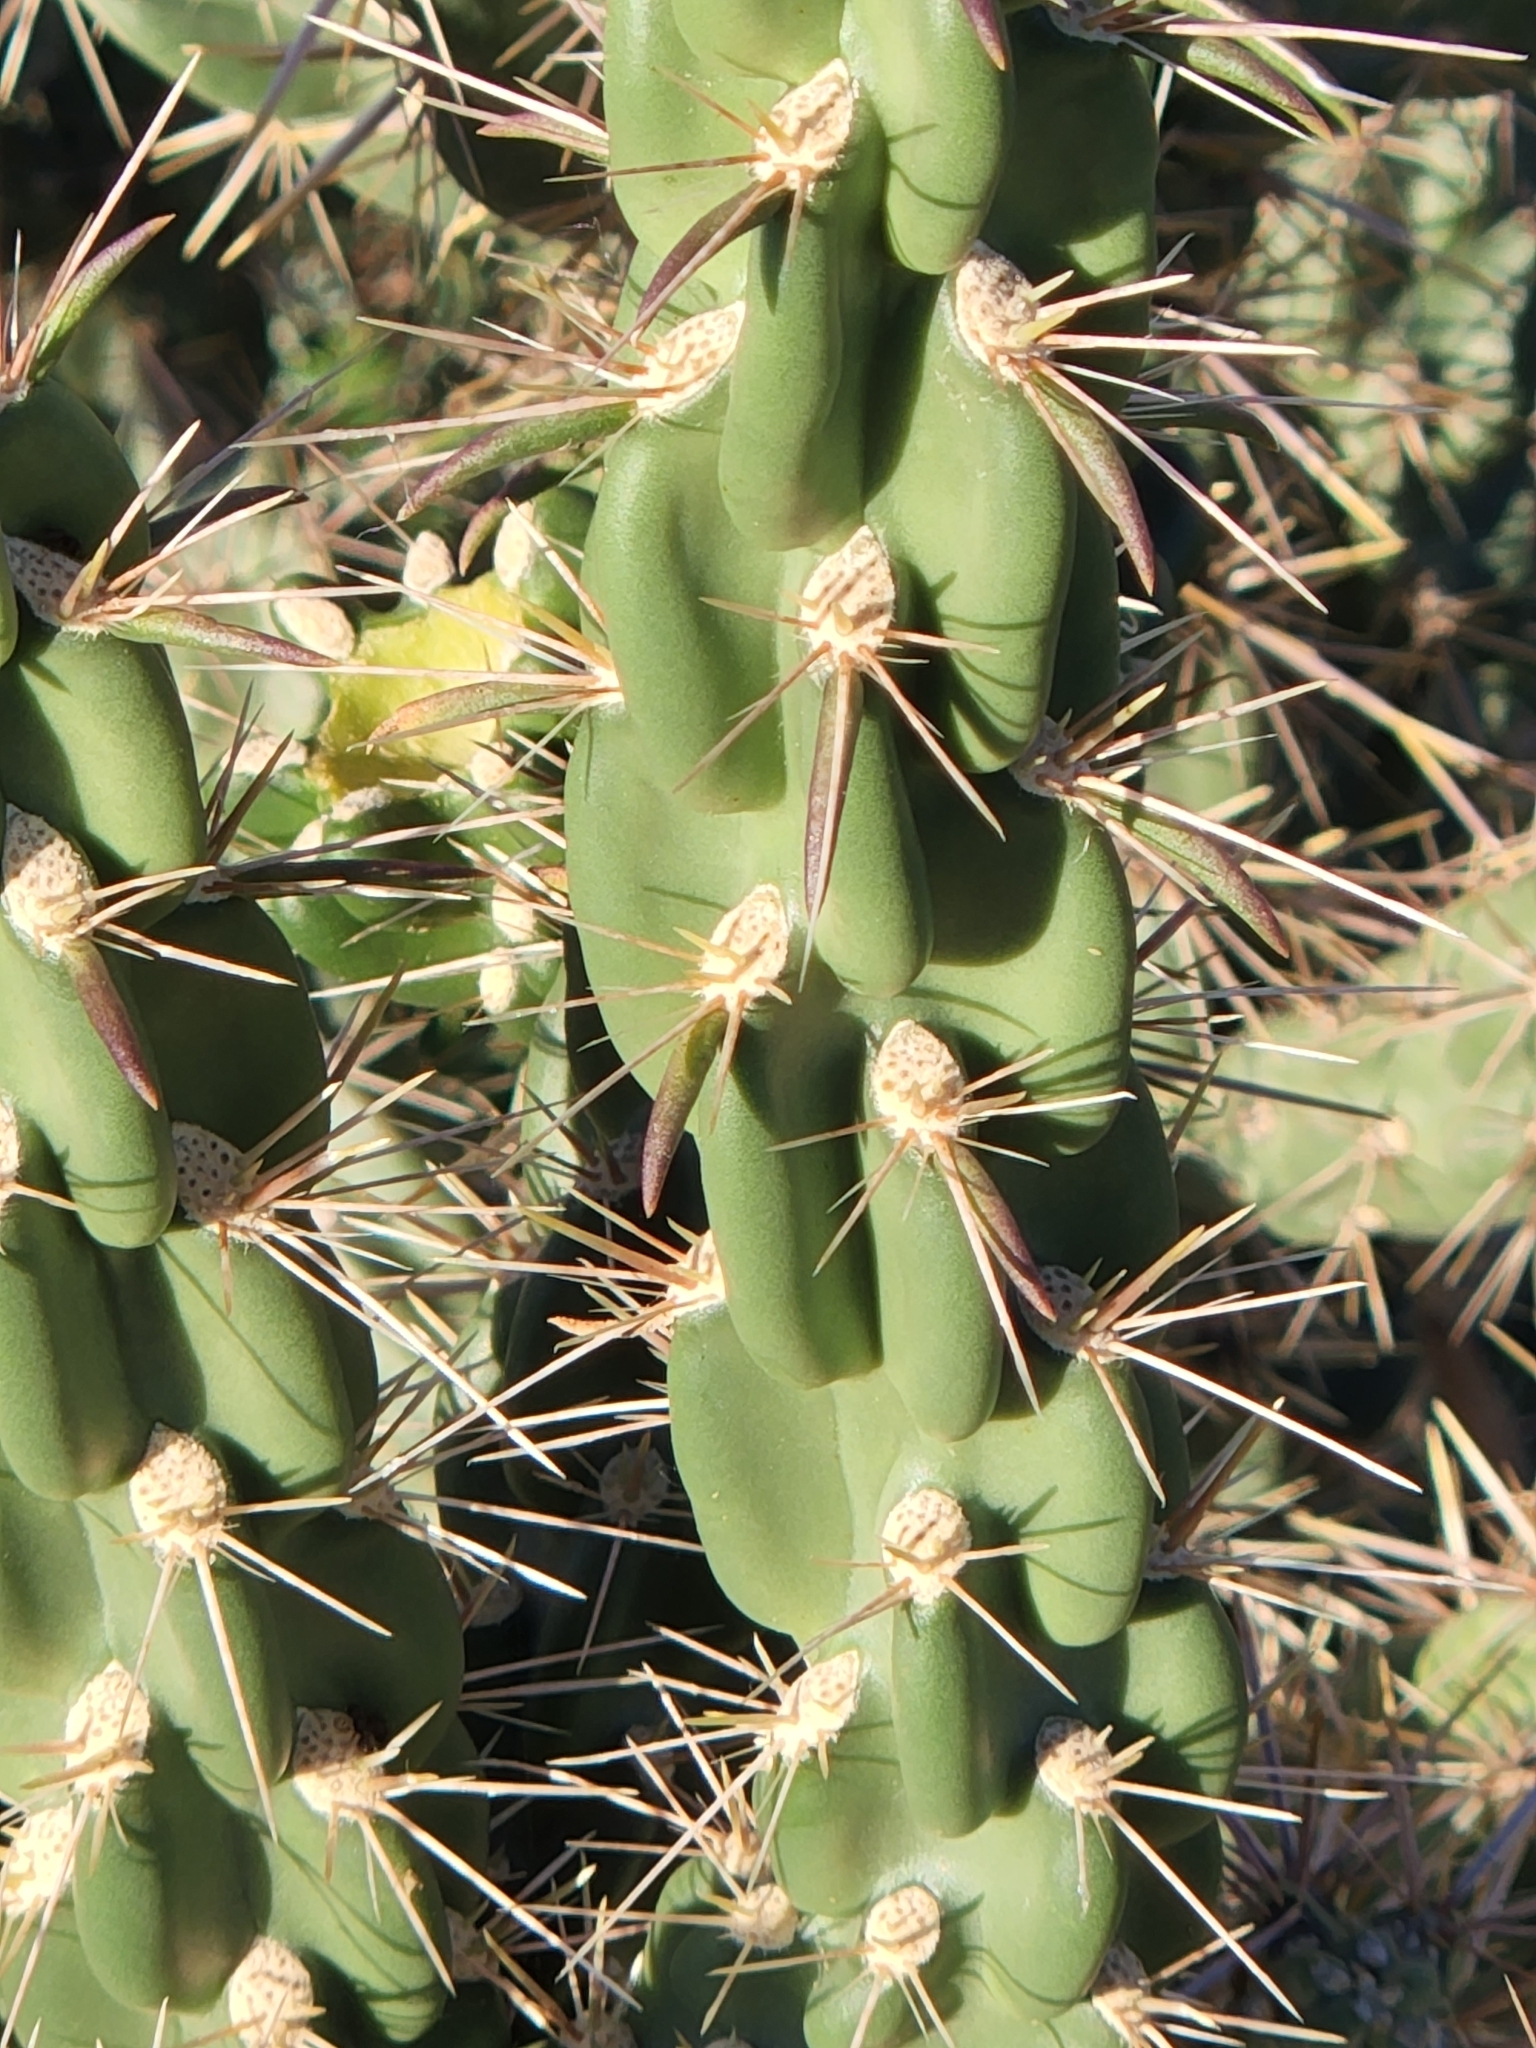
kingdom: Plantae
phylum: Tracheophyta
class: Magnoliopsida
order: Caryophyllales
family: Cactaceae
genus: Cylindropuntia
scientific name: Cylindropuntia imbricata
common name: Candelabrum cactus
